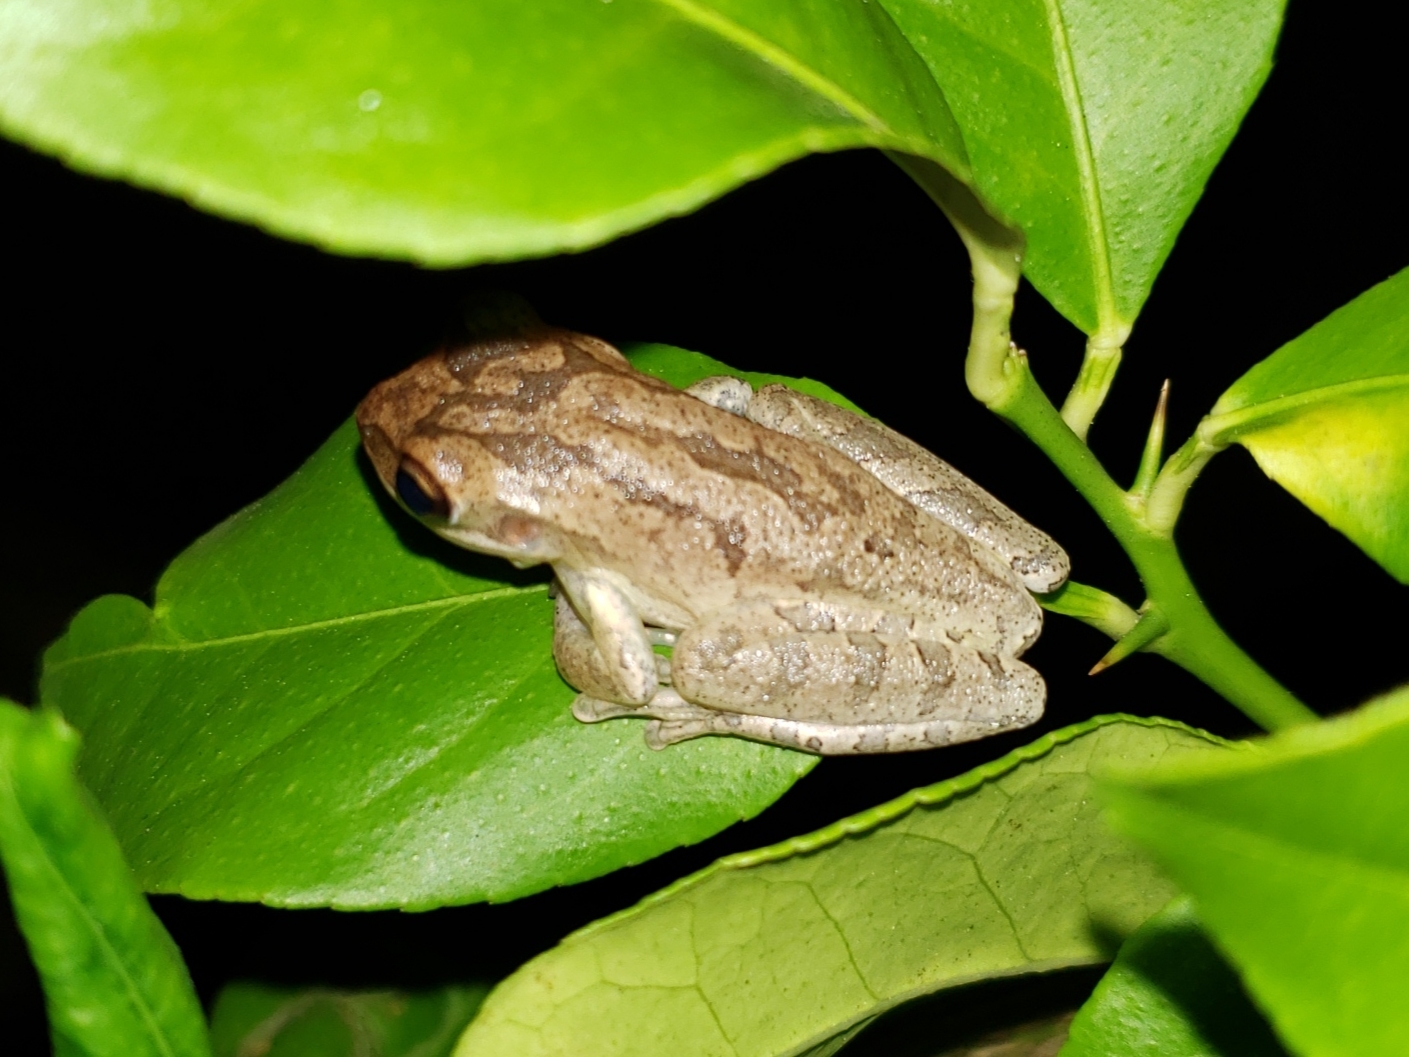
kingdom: Animalia
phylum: Chordata
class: Amphibia
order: Anura
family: Hylidae
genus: Osteopilus
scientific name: Osteopilus septentrionalis
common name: Cuban treefrog
